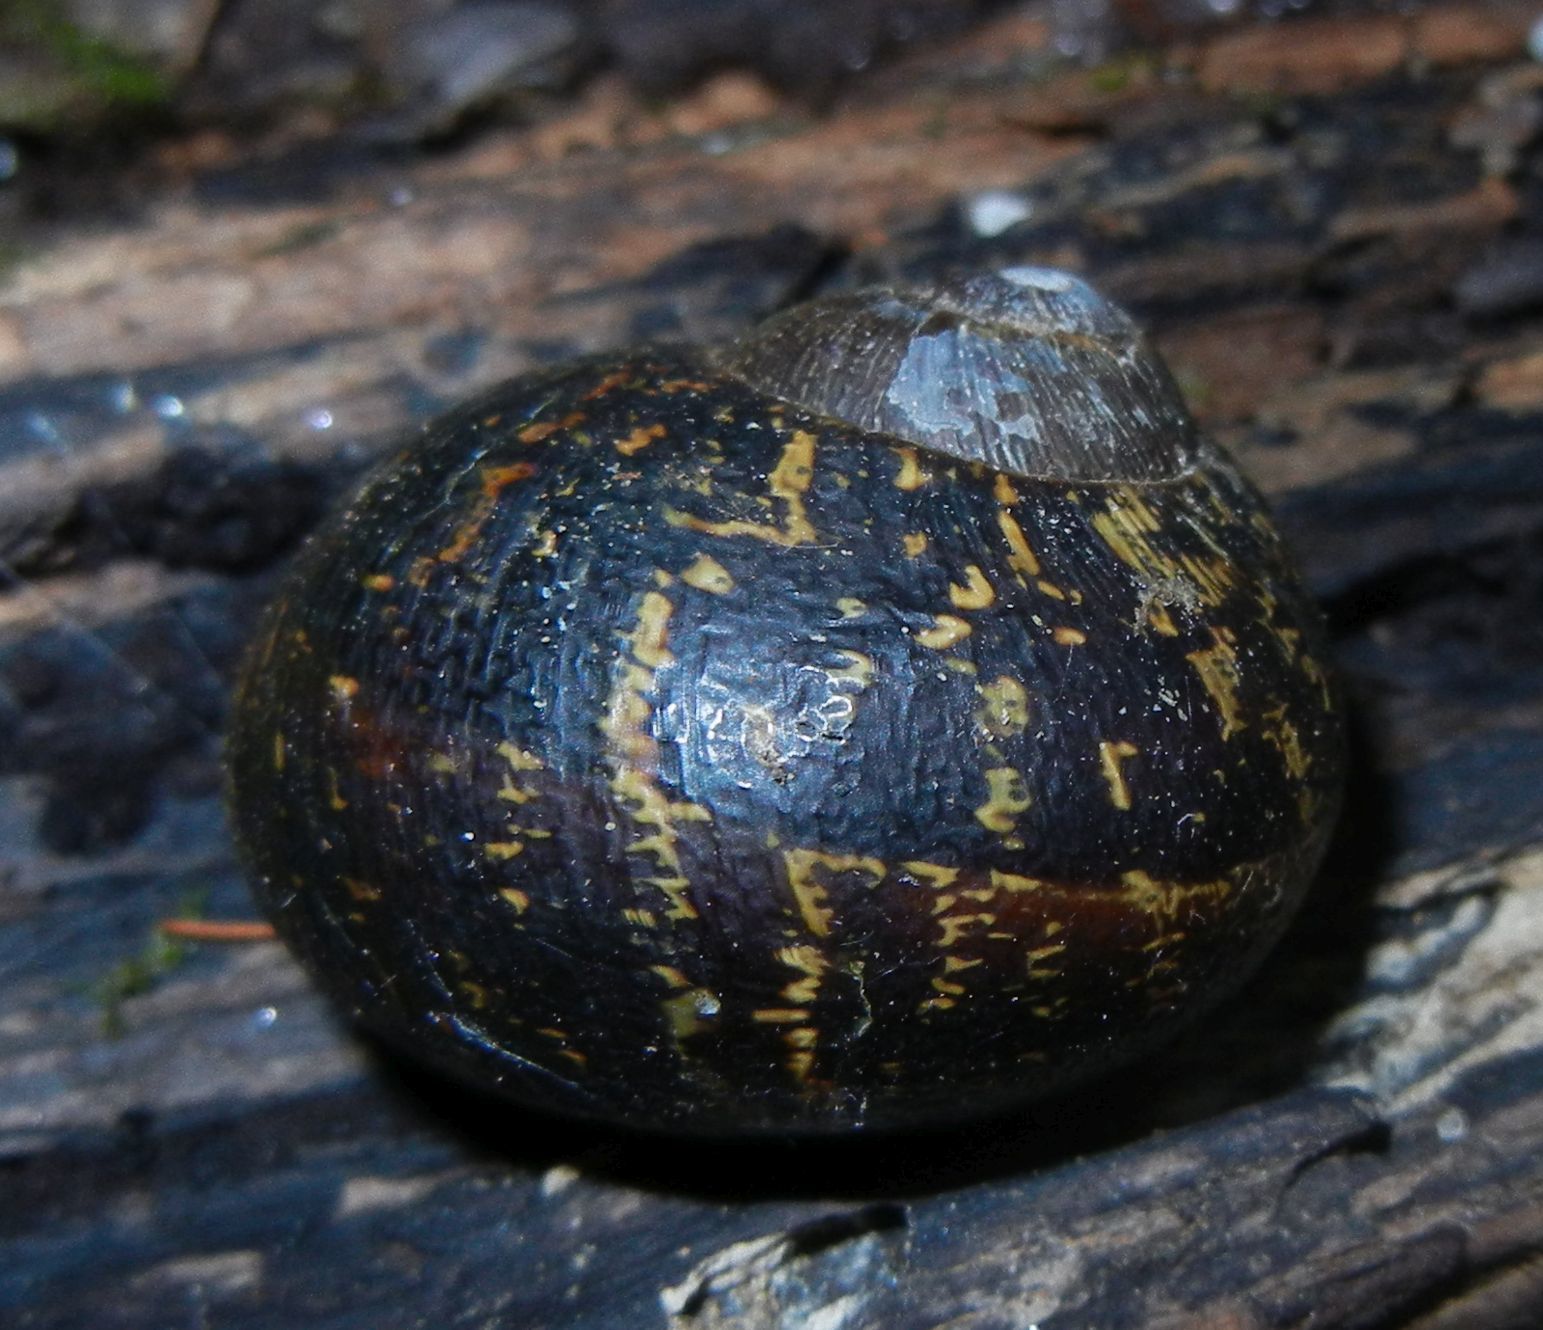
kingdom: Animalia
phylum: Mollusca
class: Gastropoda
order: Stylommatophora
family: Helicidae
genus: Cornu
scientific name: Cornu aspersum
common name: Brown garden snail
